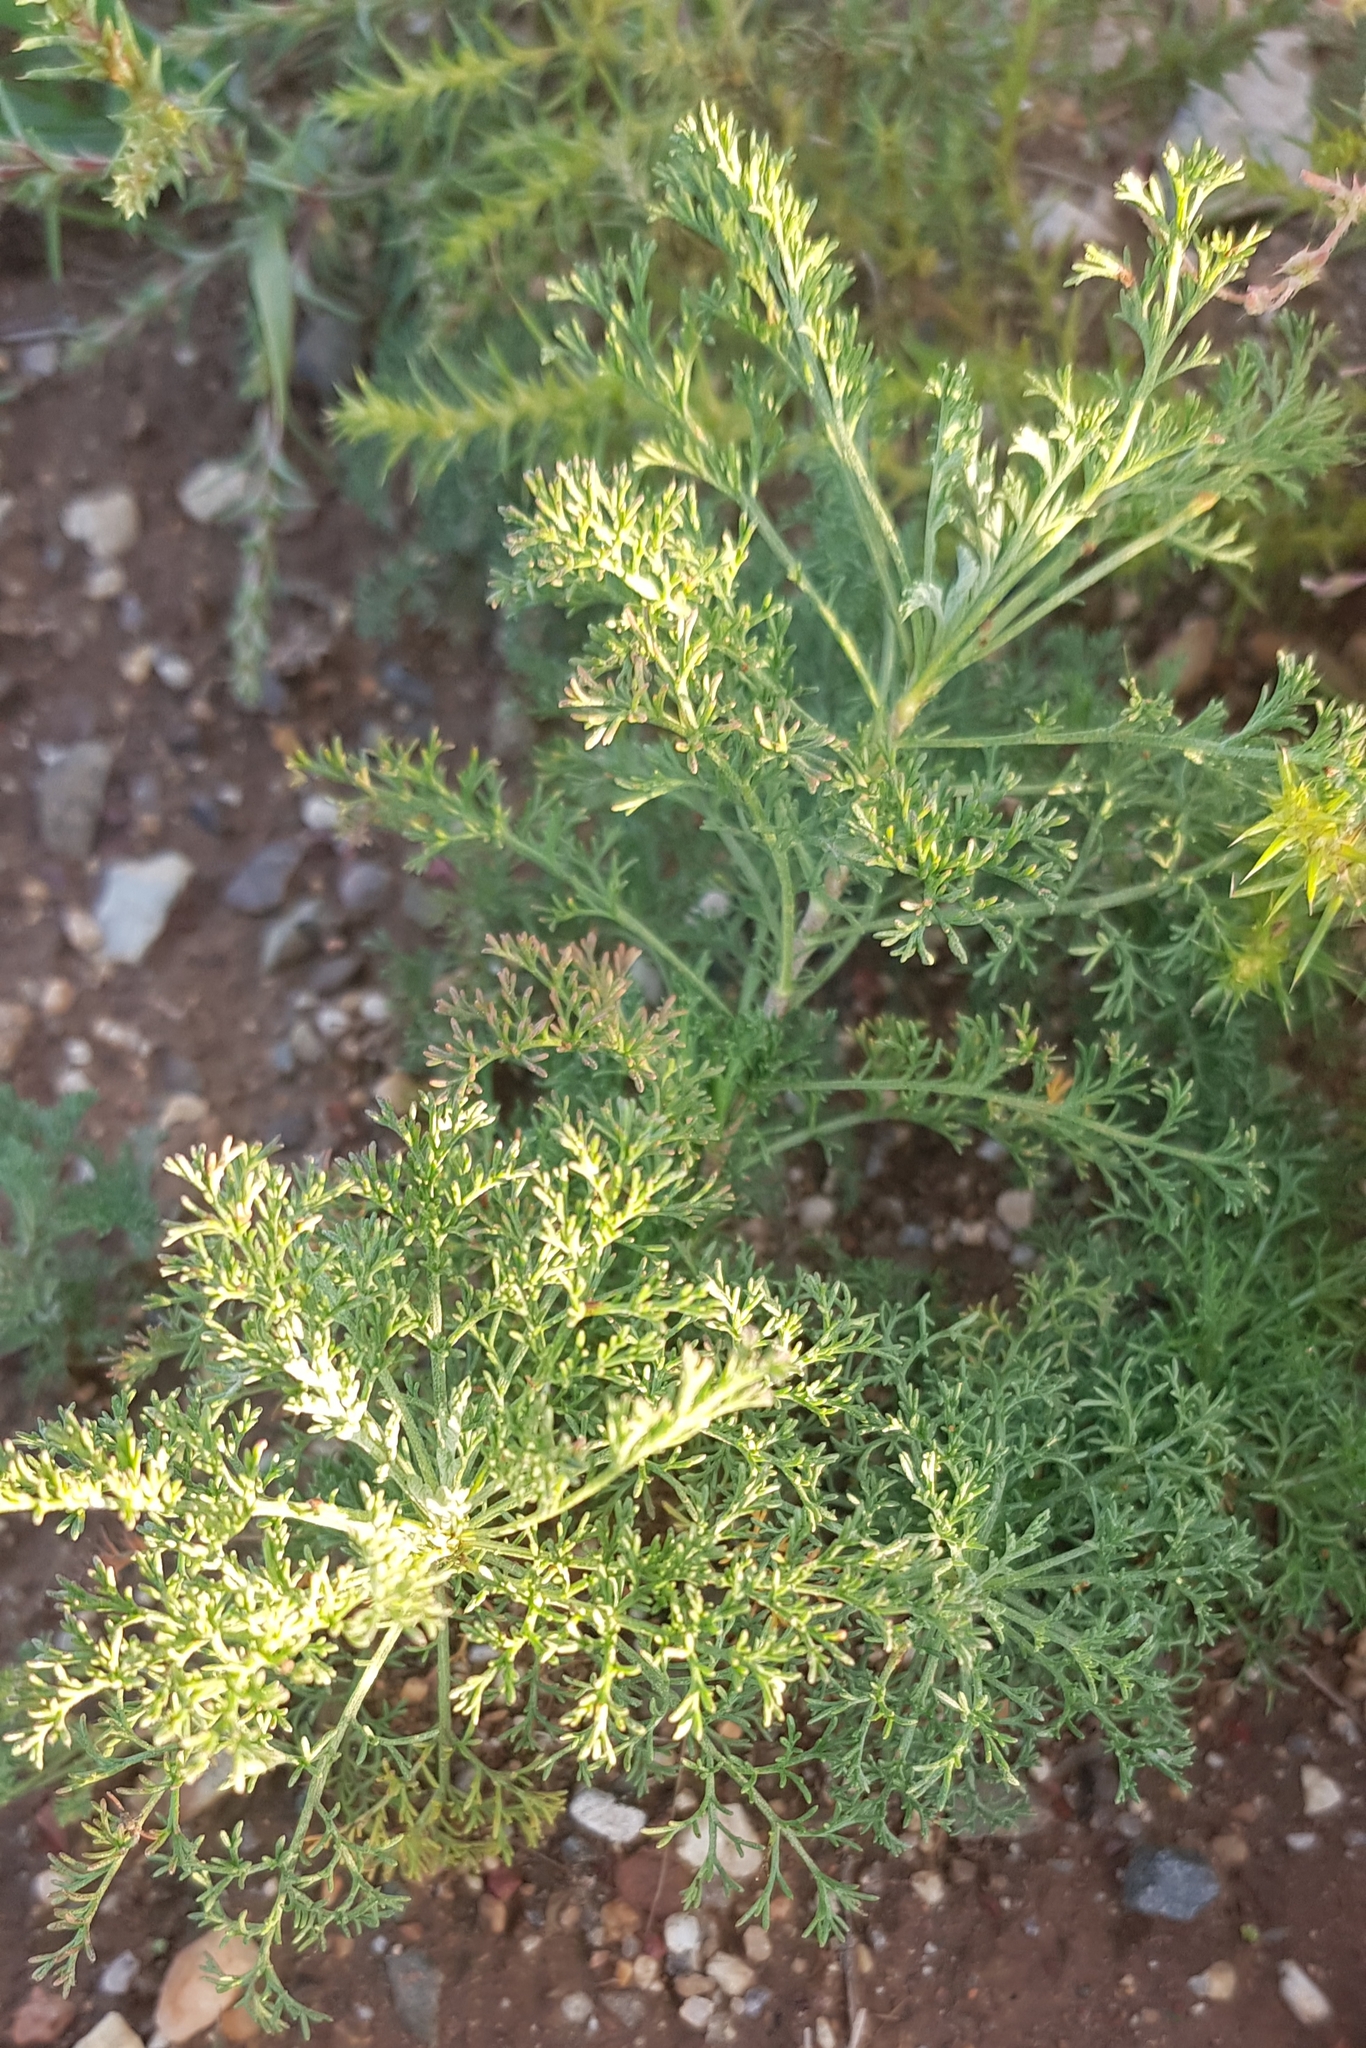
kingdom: Plantae
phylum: Tracheophyta
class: Magnoliopsida
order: Asterales
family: Asteraceae
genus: Artemisia
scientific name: Artemisia adamsii
